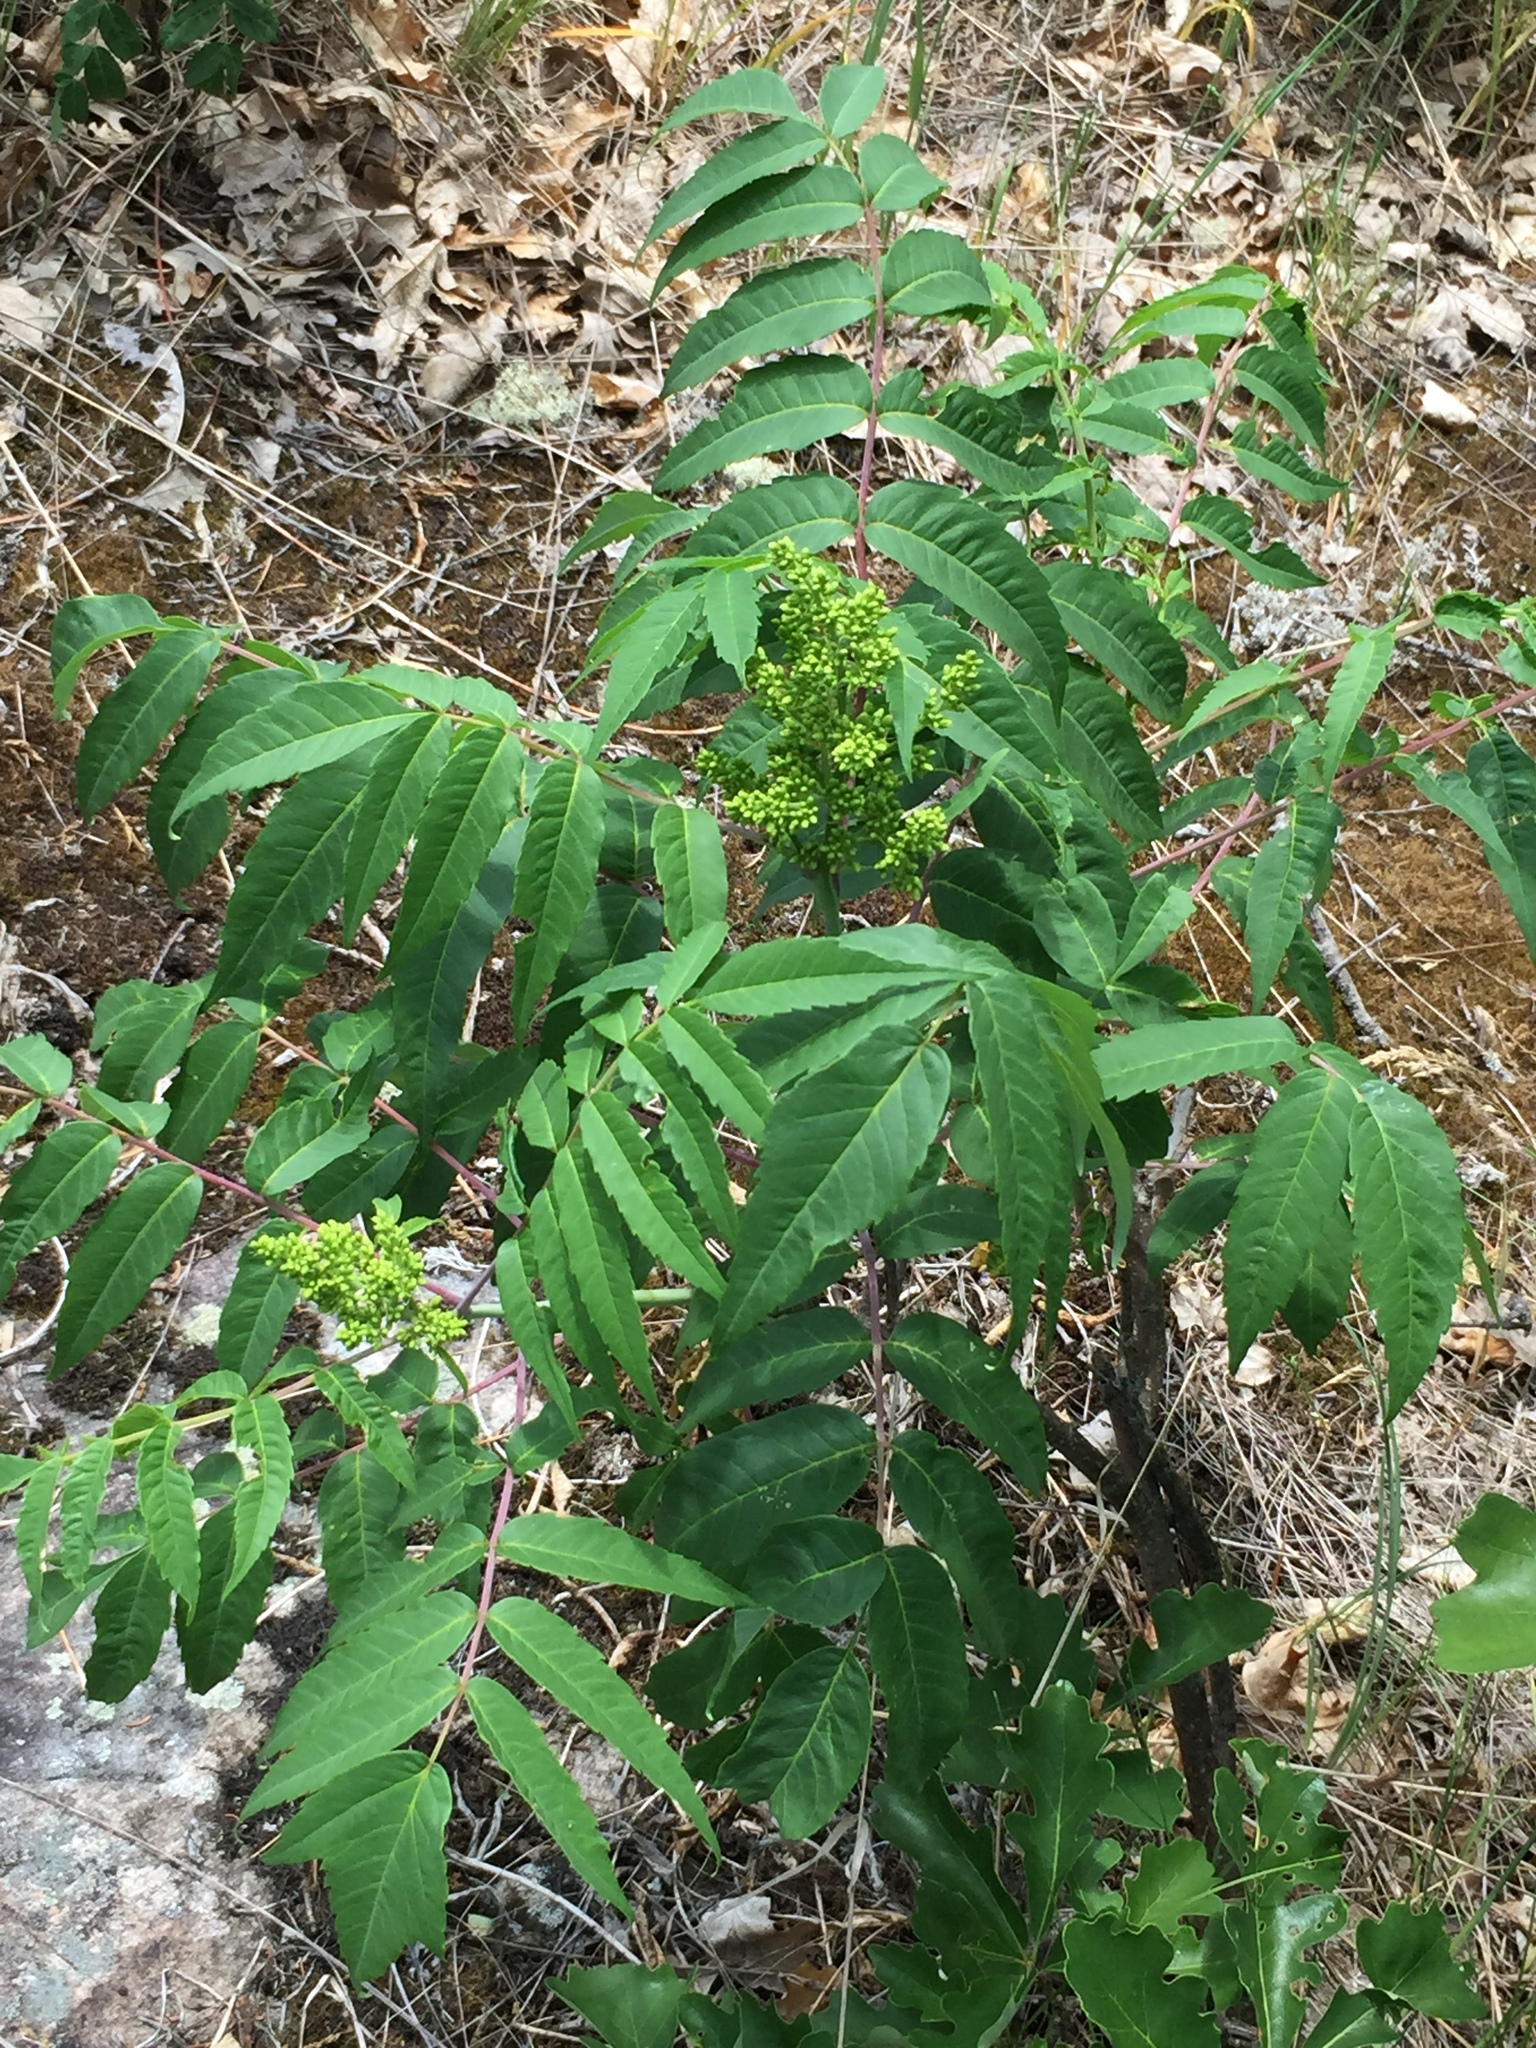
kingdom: Plantae
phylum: Tracheophyta
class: Magnoliopsida
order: Sapindales
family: Anacardiaceae
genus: Rhus
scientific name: Rhus glabra
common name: Scarlet sumac
